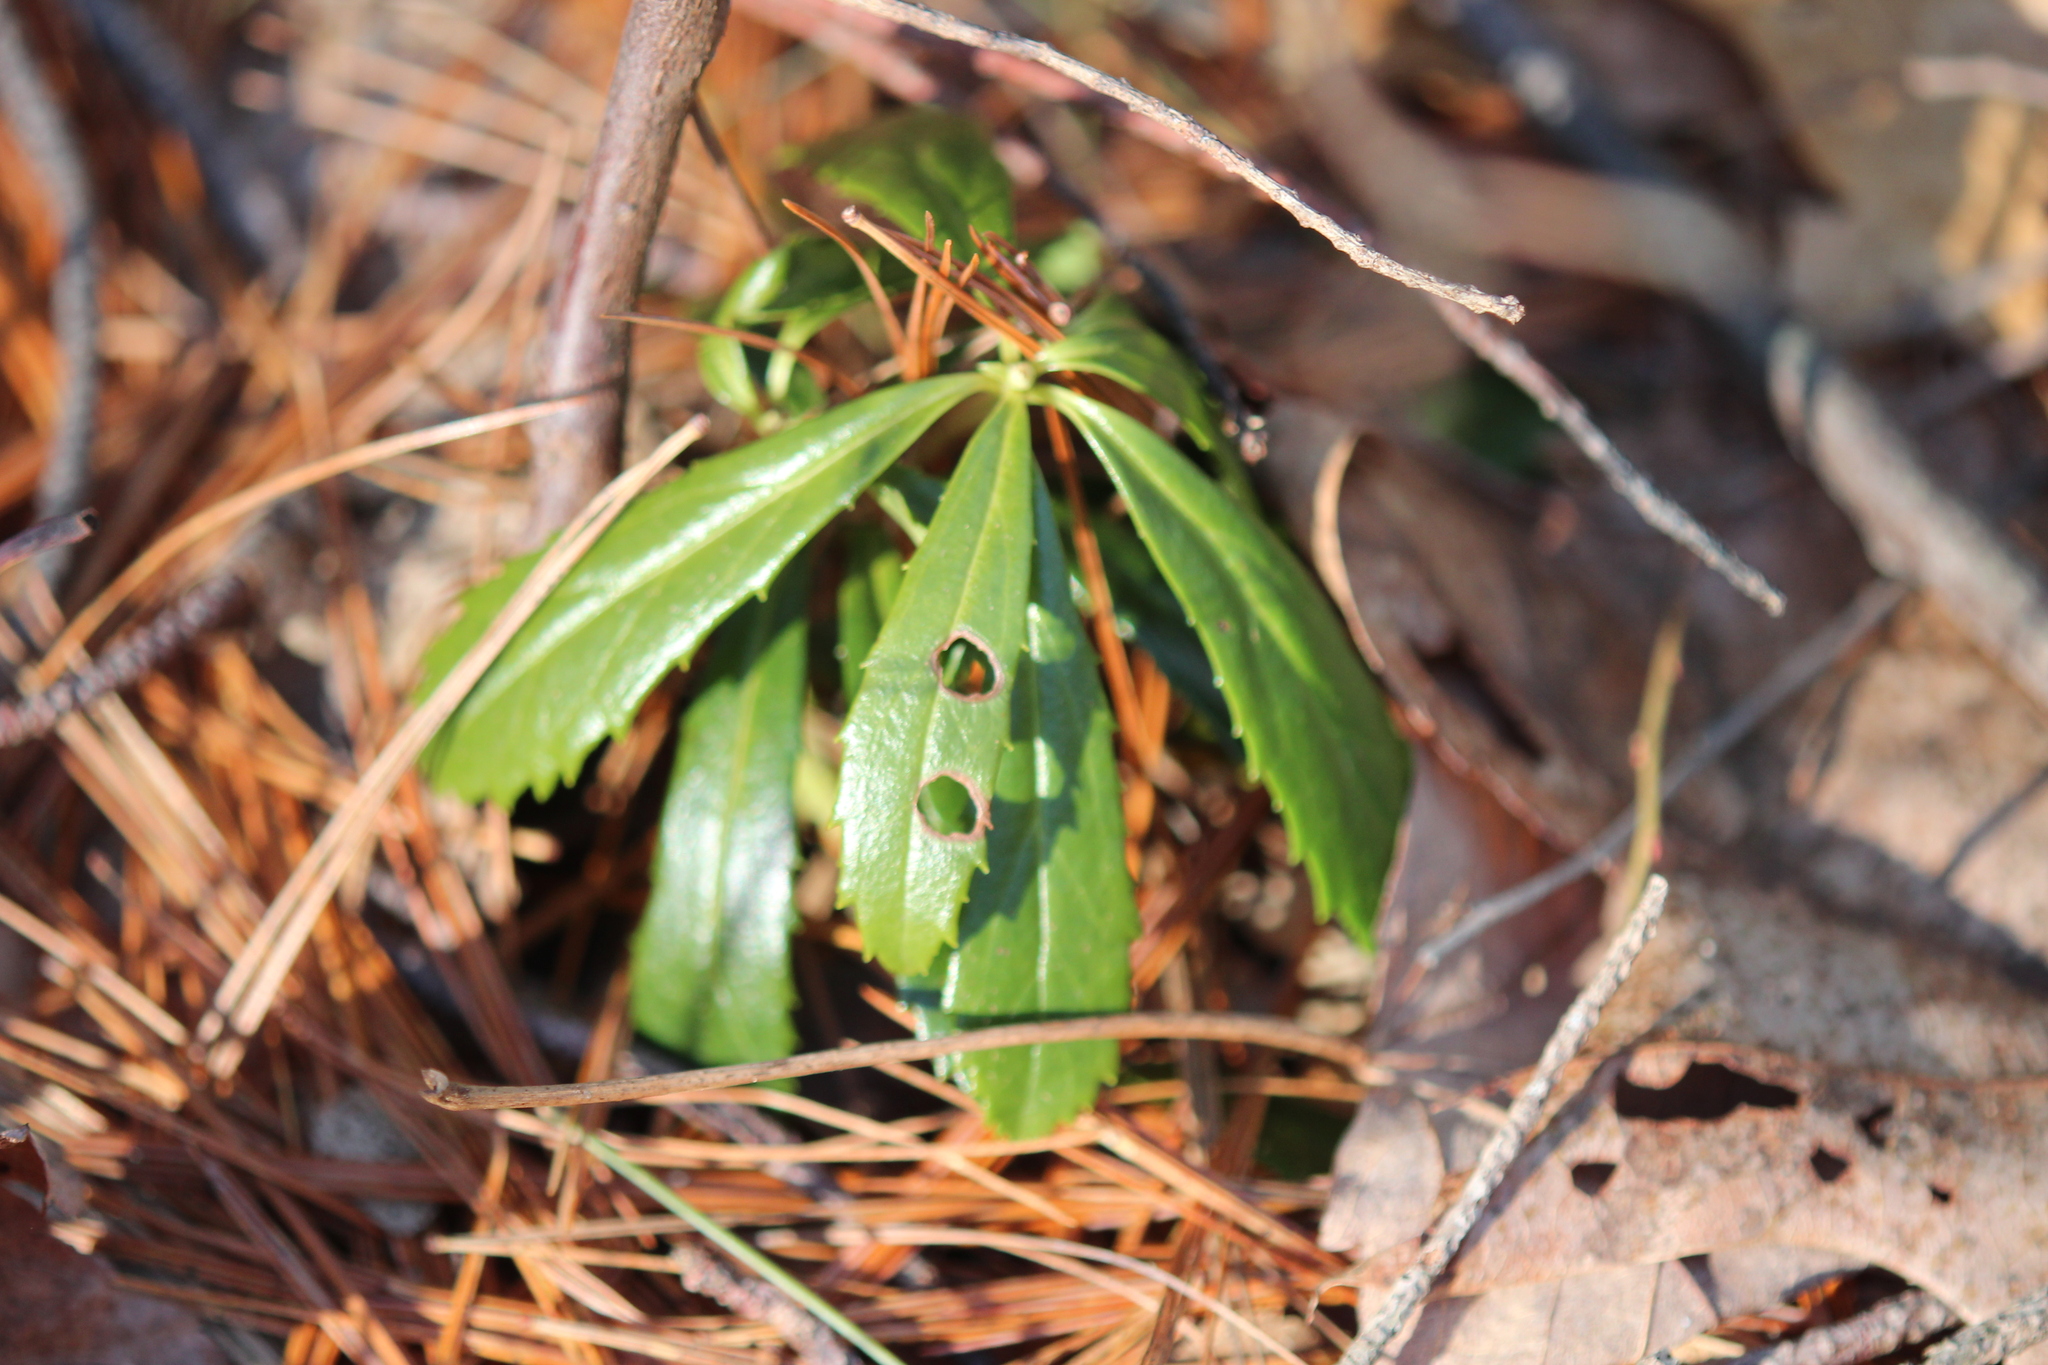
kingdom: Plantae
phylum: Tracheophyta
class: Magnoliopsida
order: Ericales
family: Ericaceae
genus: Chimaphila
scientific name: Chimaphila umbellata
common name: Pipsissewa
